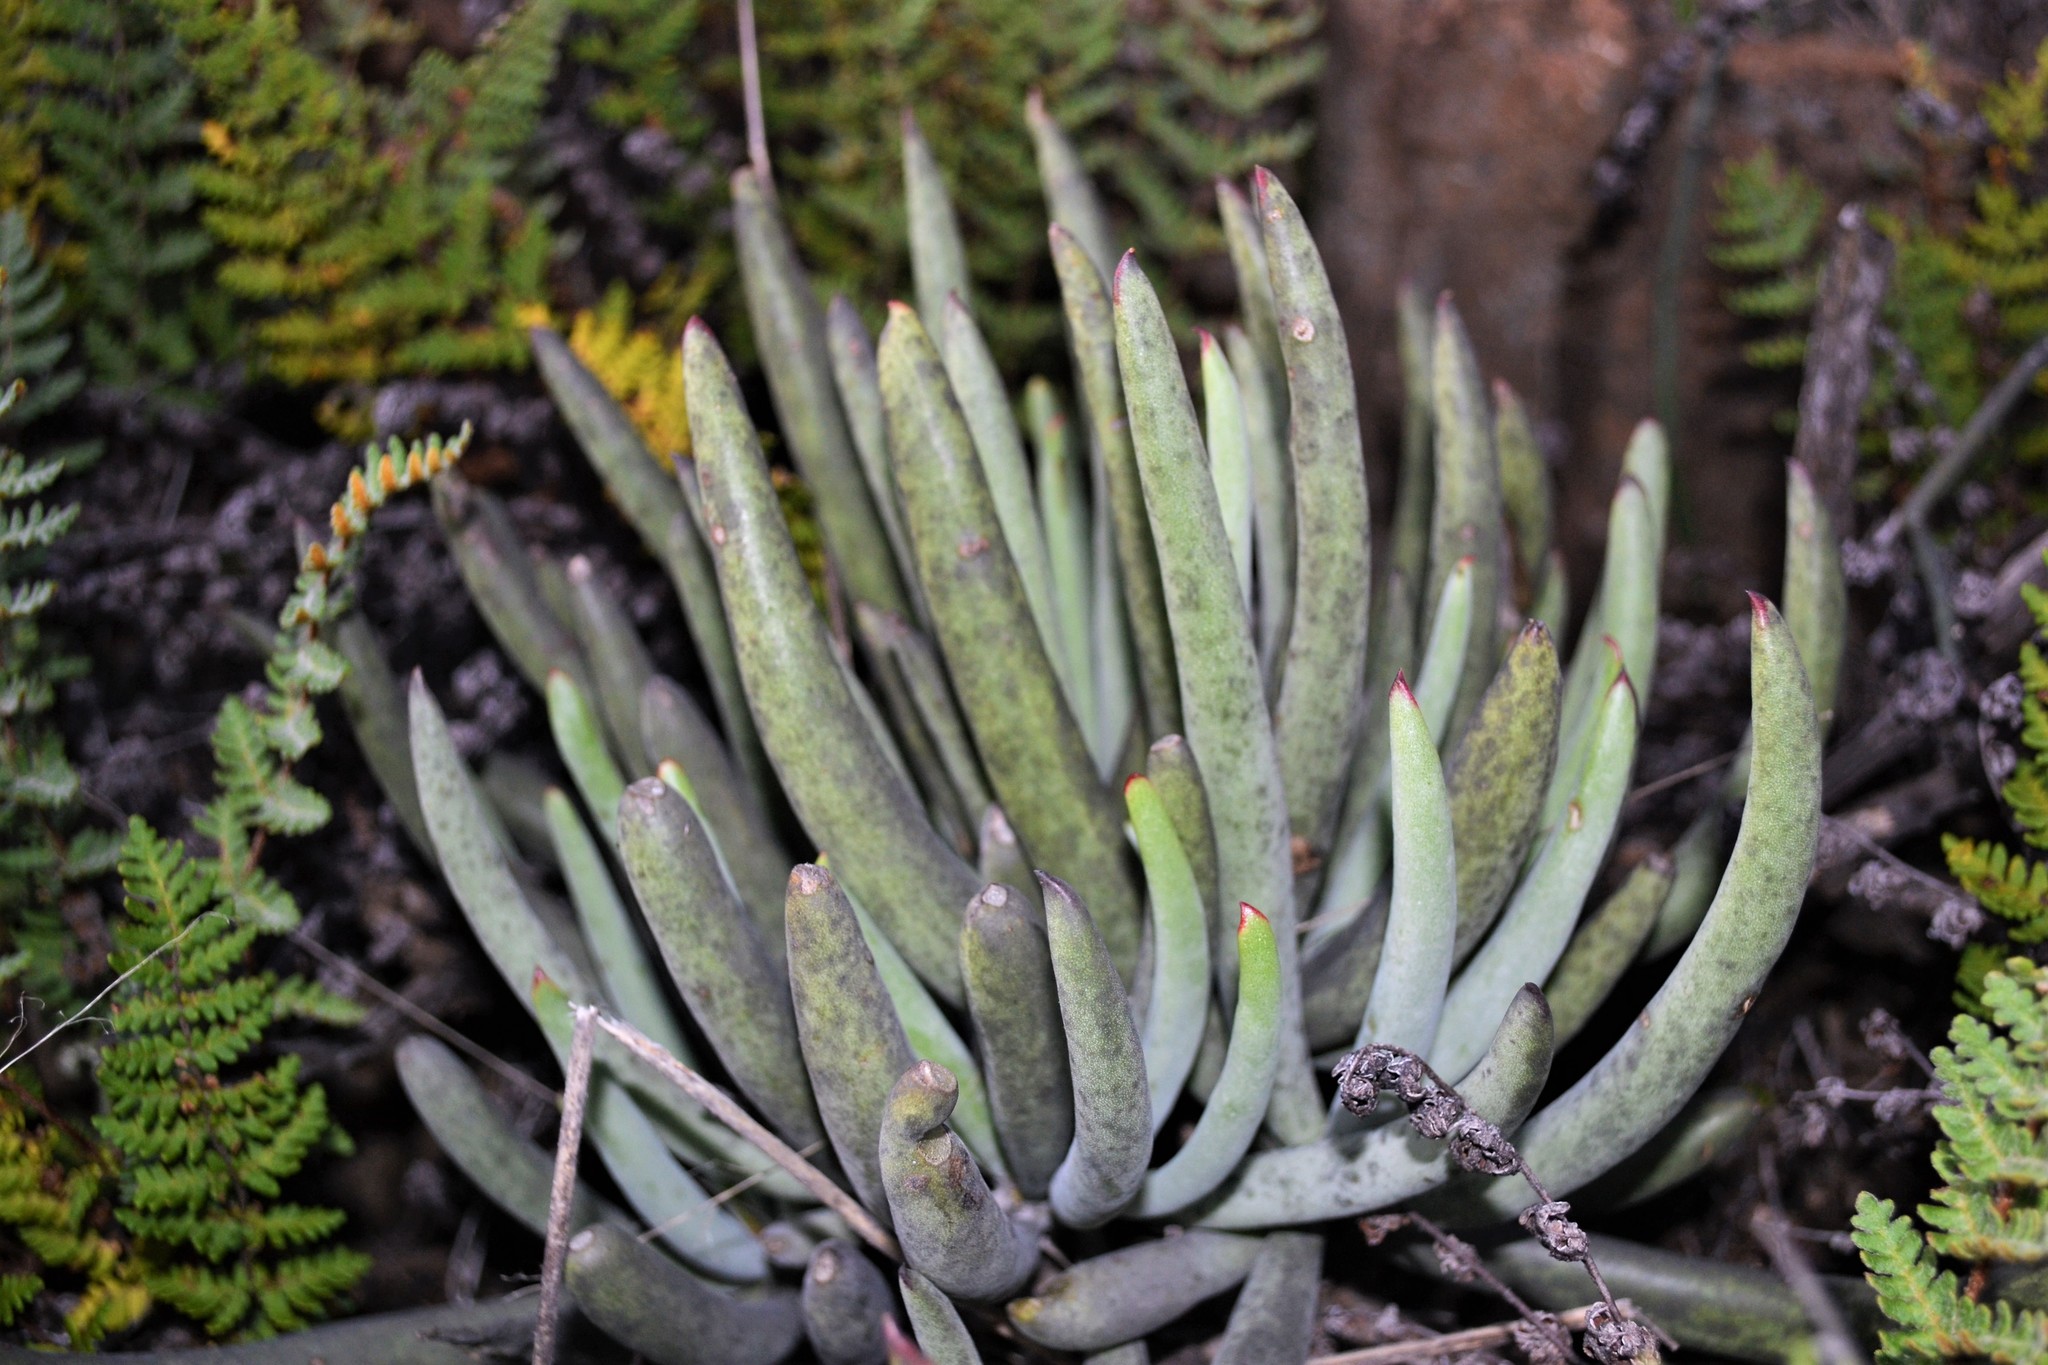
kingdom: Plantae
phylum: Tracheophyta
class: Magnoliopsida
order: Saxifragales
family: Crassulaceae
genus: Cotyledon
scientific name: Cotyledon orbiculata
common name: Pig's ear
